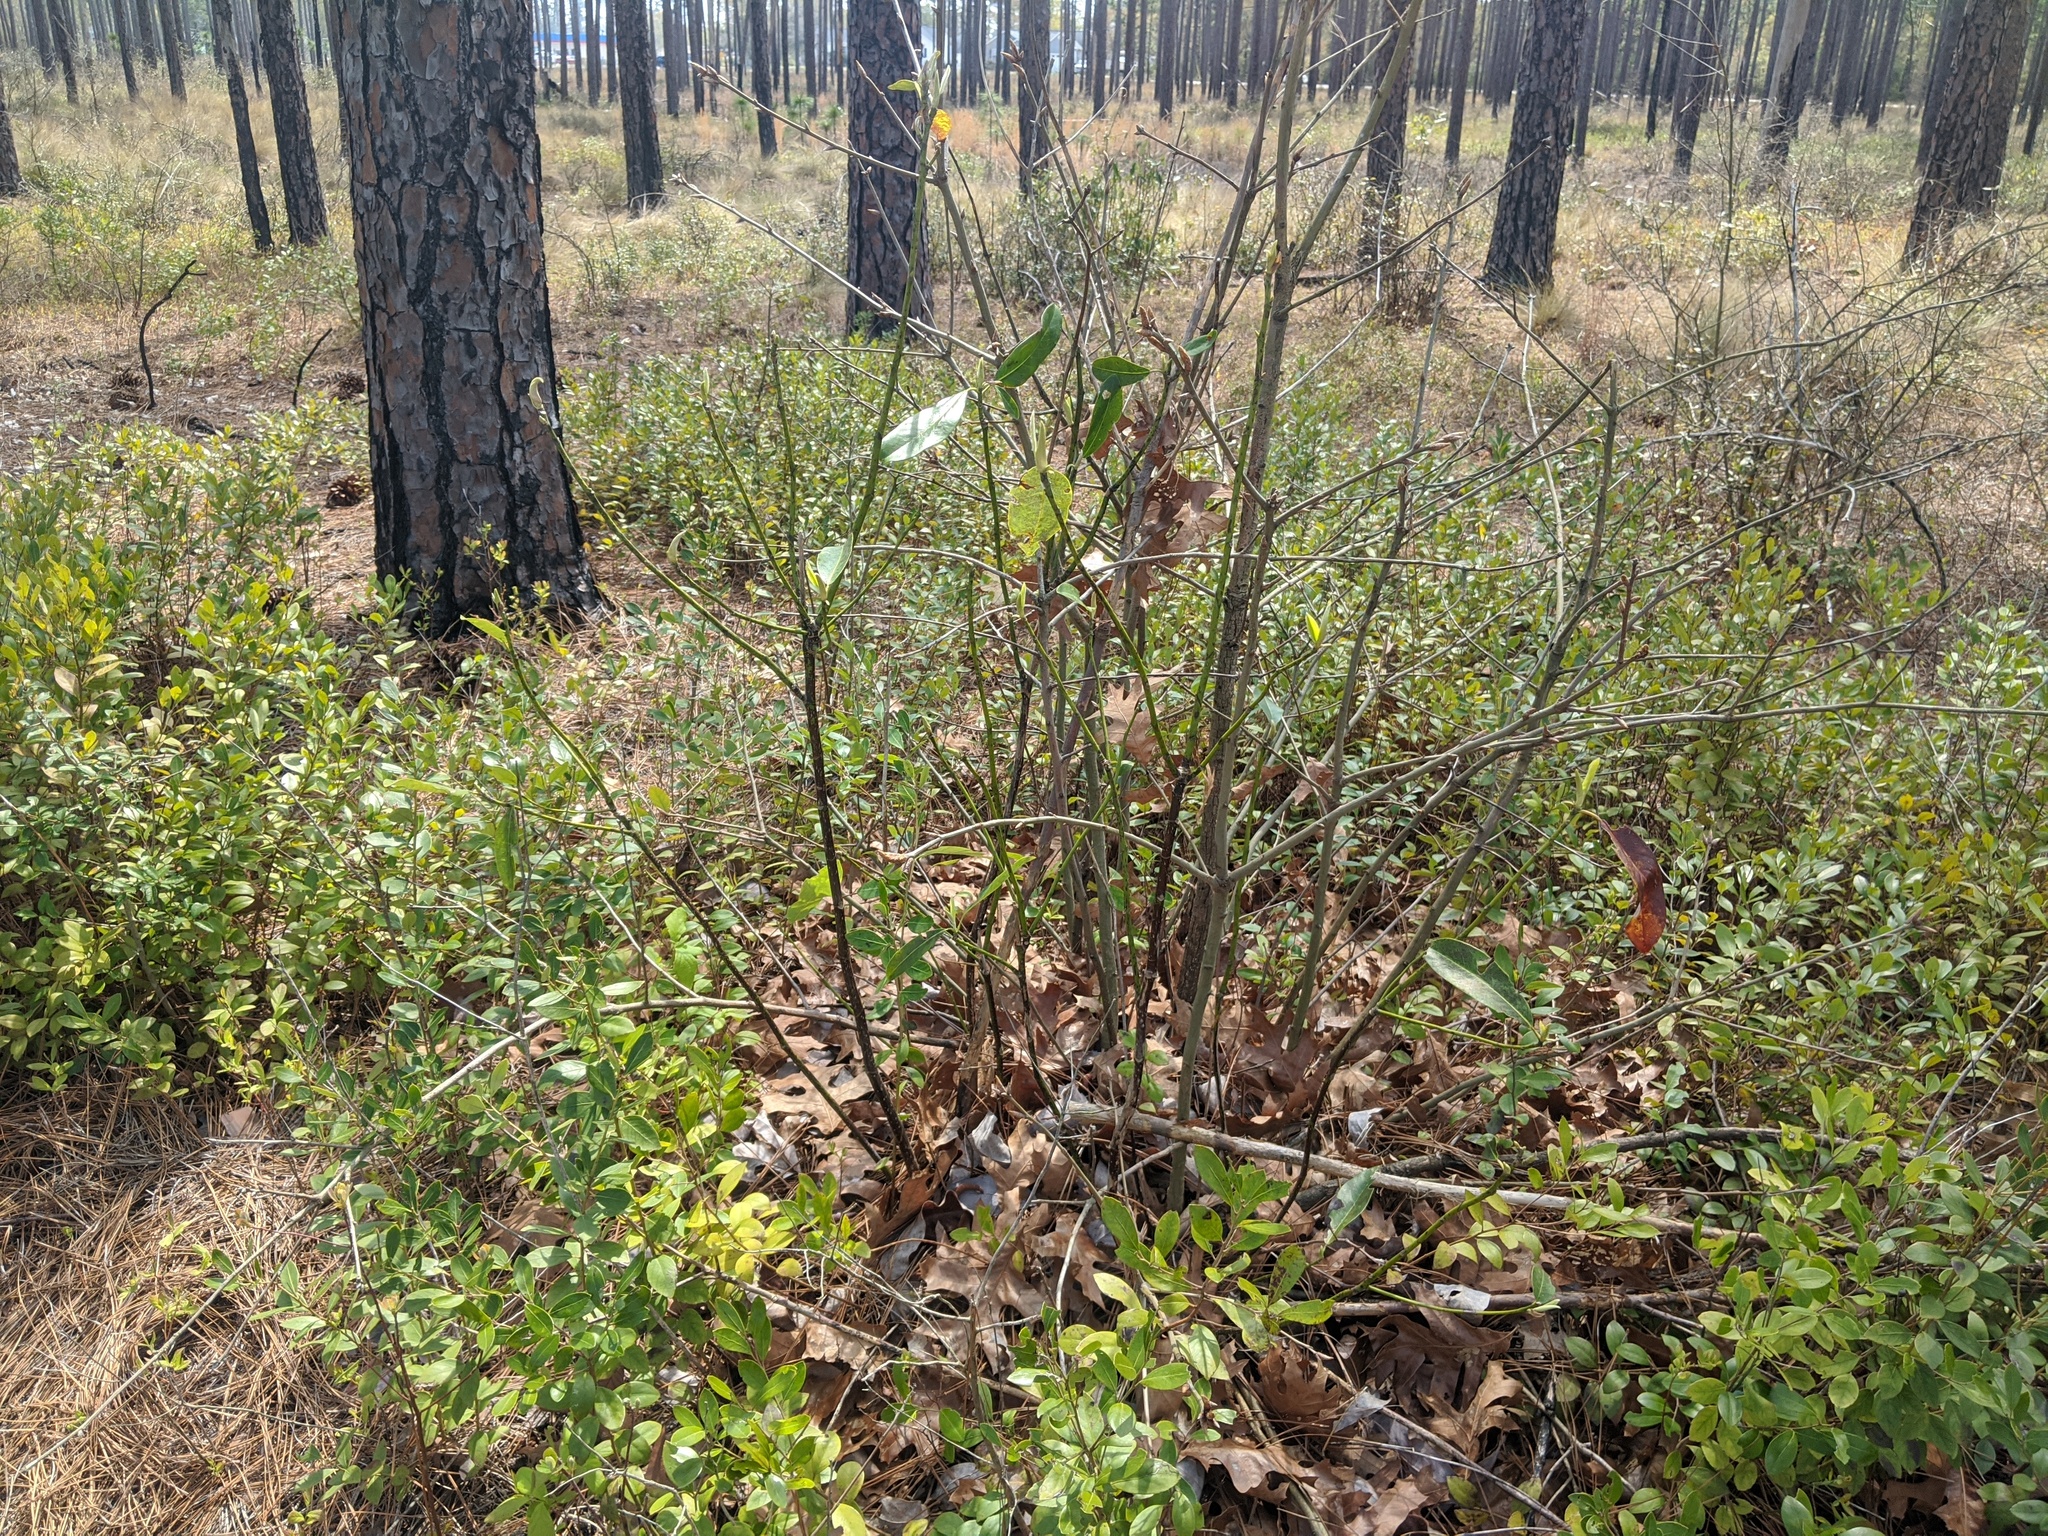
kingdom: Plantae
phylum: Tracheophyta
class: Magnoliopsida
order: Magnoliales
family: Magnoliaceae
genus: Magnolia
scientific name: Magnolia virginiana
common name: Swamp bay
